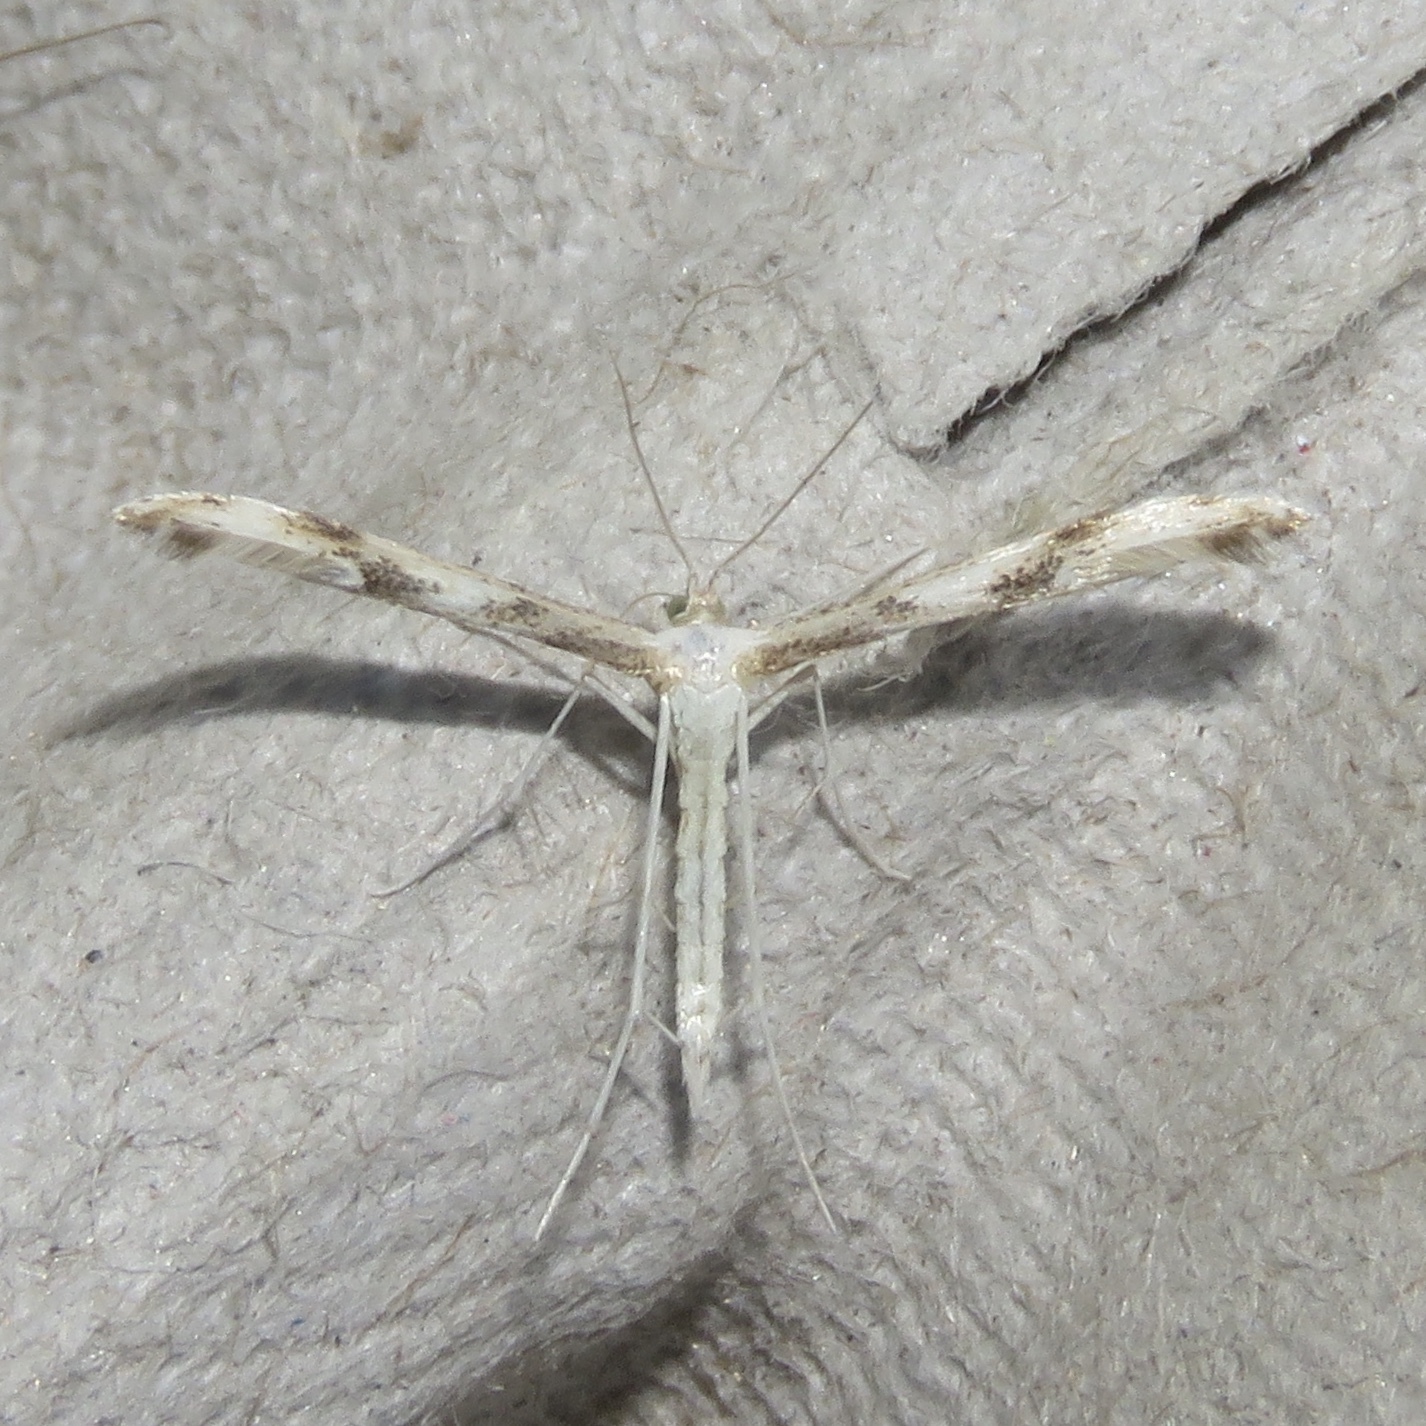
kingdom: Animalia
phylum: Arthropoda
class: Insecta
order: Lepidoptera
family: Pterophoridae
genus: Adaina
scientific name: Adaina montanus
